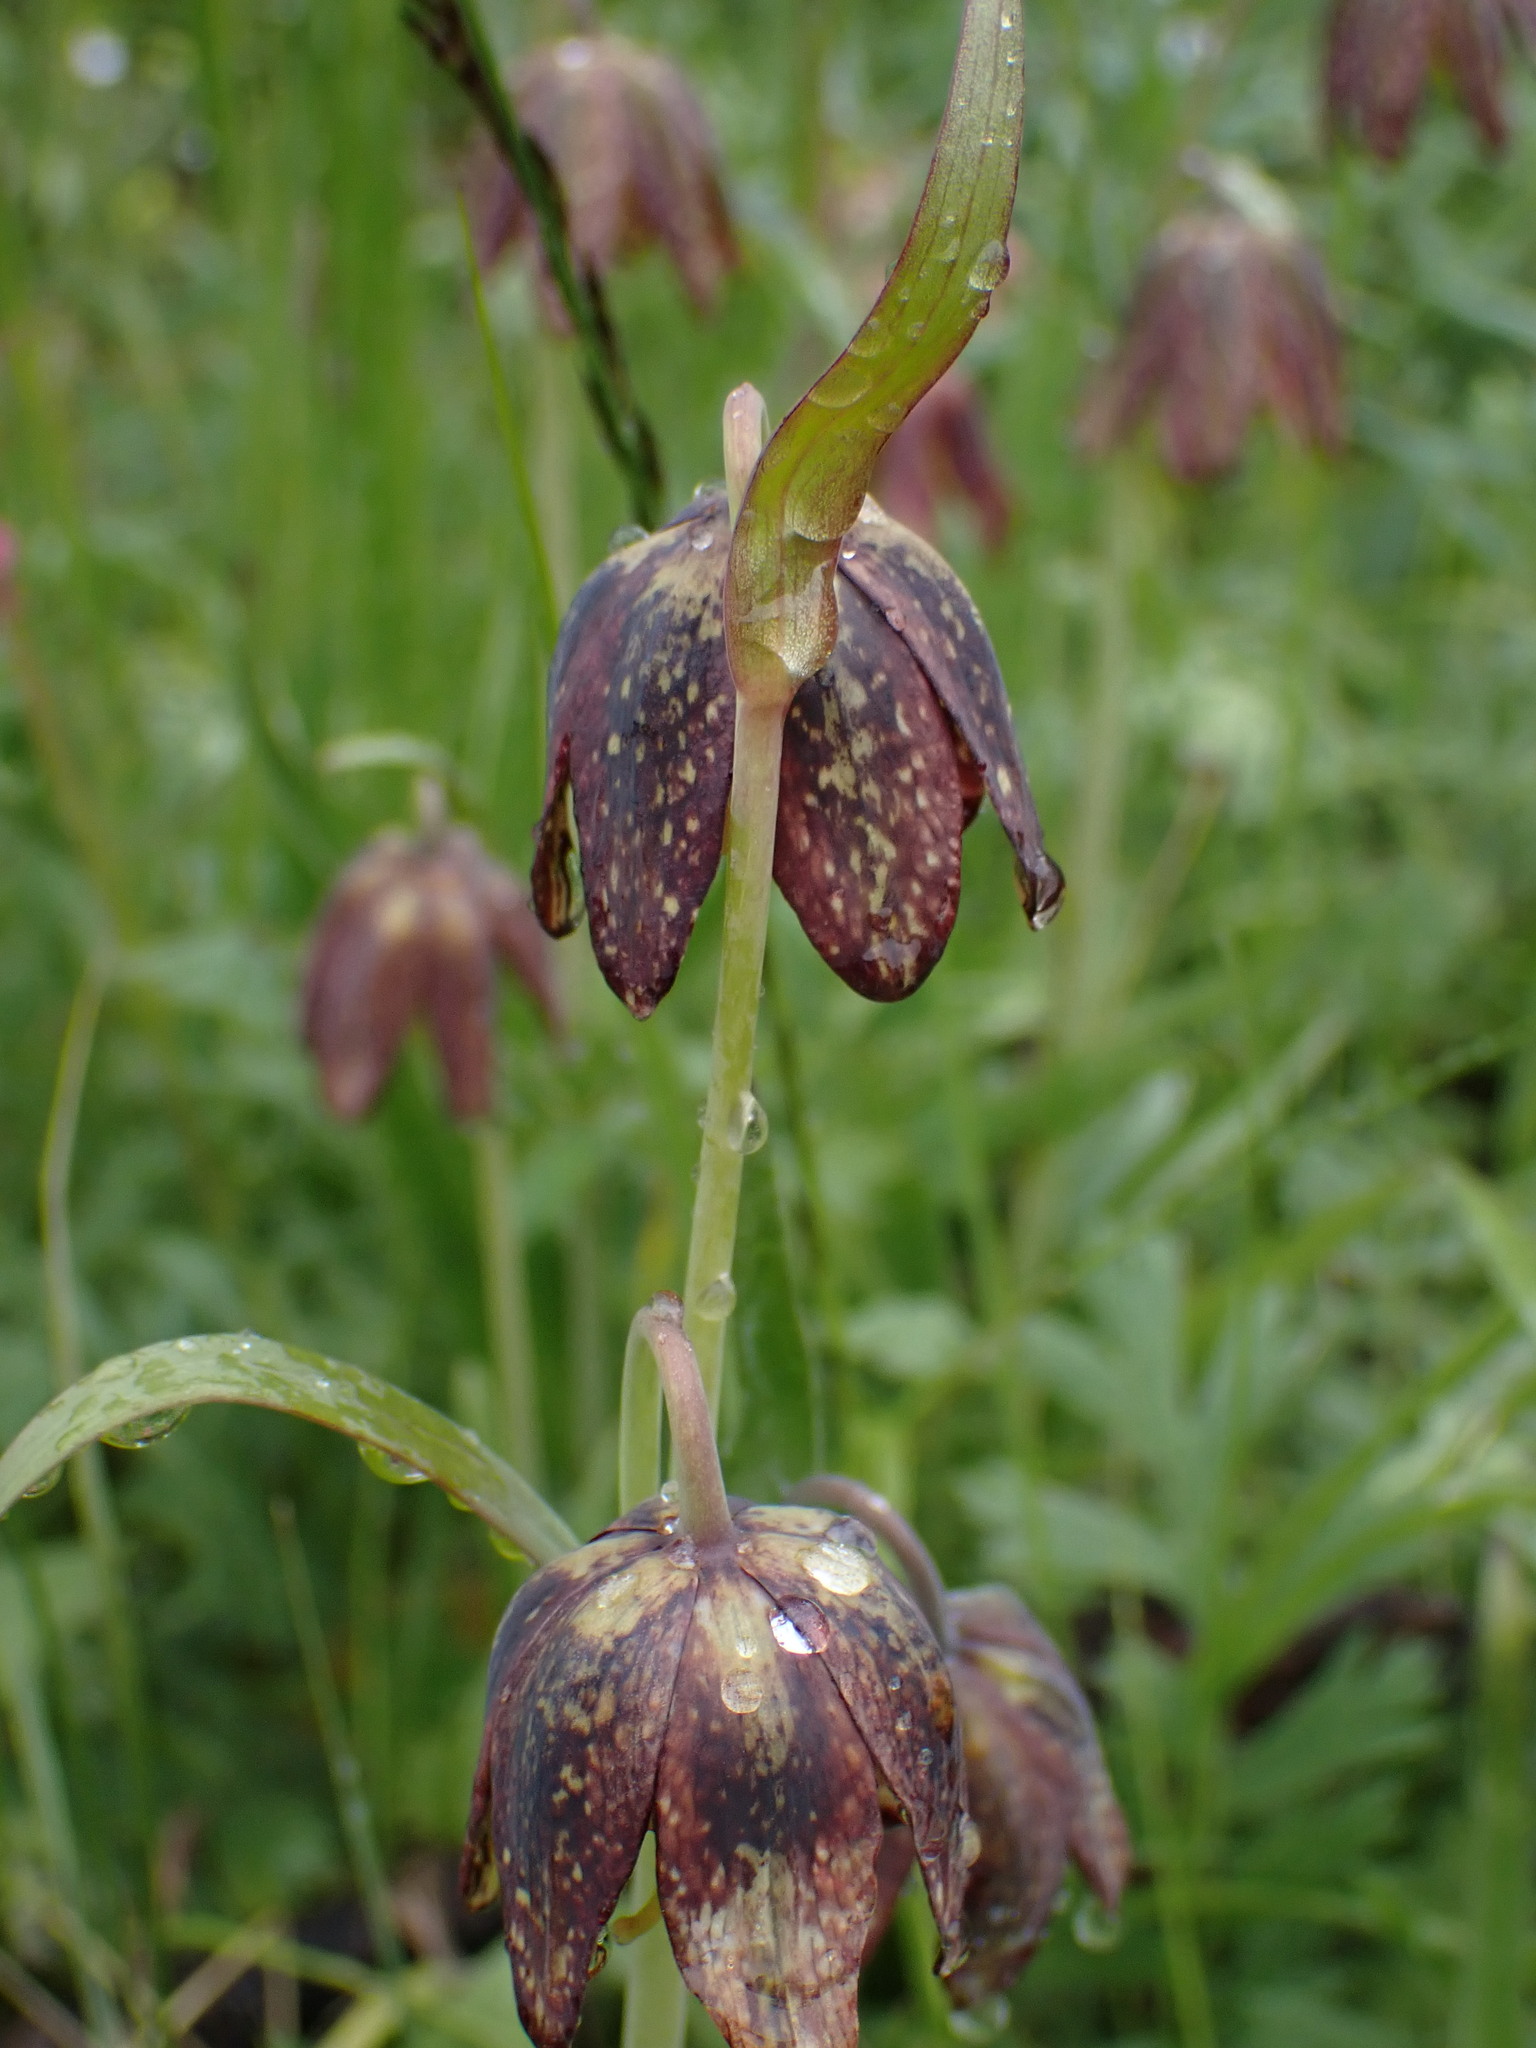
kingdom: Plantae
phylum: Tracheophyta
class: Liliopsida
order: Liliales
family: Liliaceae
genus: Fritillaria
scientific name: Fritillaria affinis
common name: Ojai fritillary
